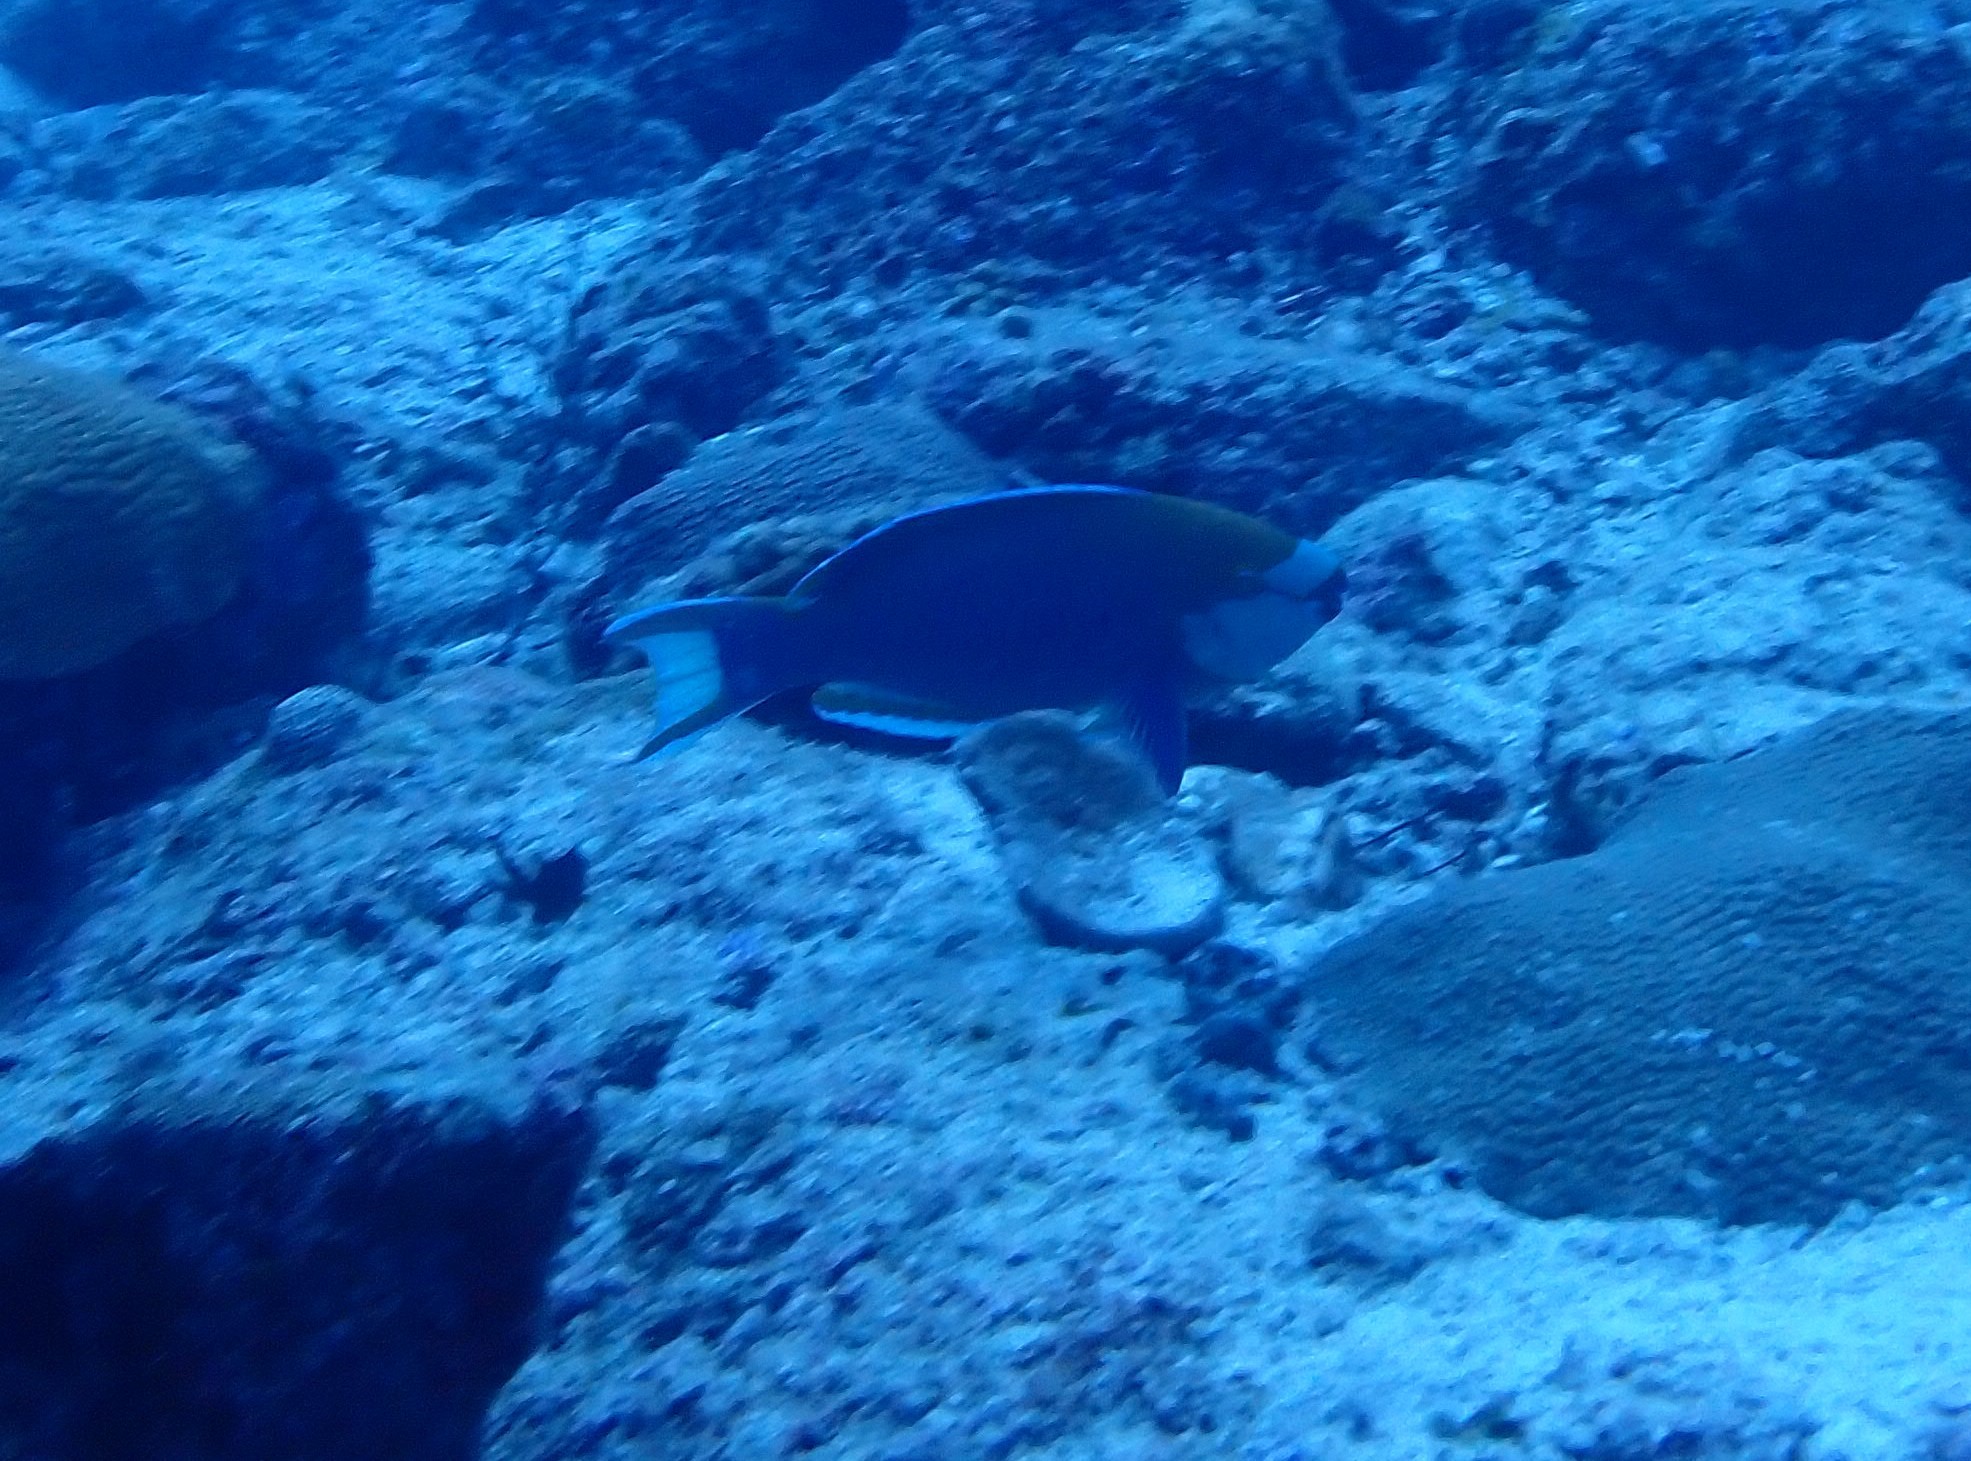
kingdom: Animalia
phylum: Chordata
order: Perciformes
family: Scaridae
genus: Scarus
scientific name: Scarus prasiognathos
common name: Singapore parrotfish
